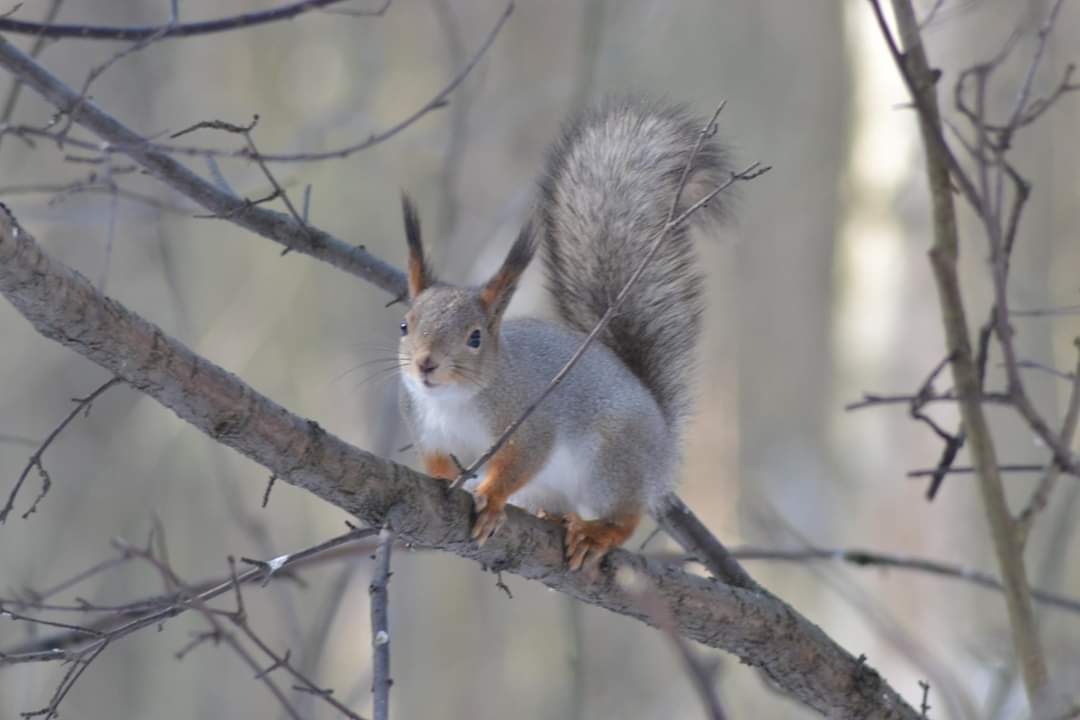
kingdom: Animalia
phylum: Chordata
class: Mammalia
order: Rodentia
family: Sciuridae
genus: Sciurus
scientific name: Sciurus vulgaris
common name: Eurasian red squirrel
